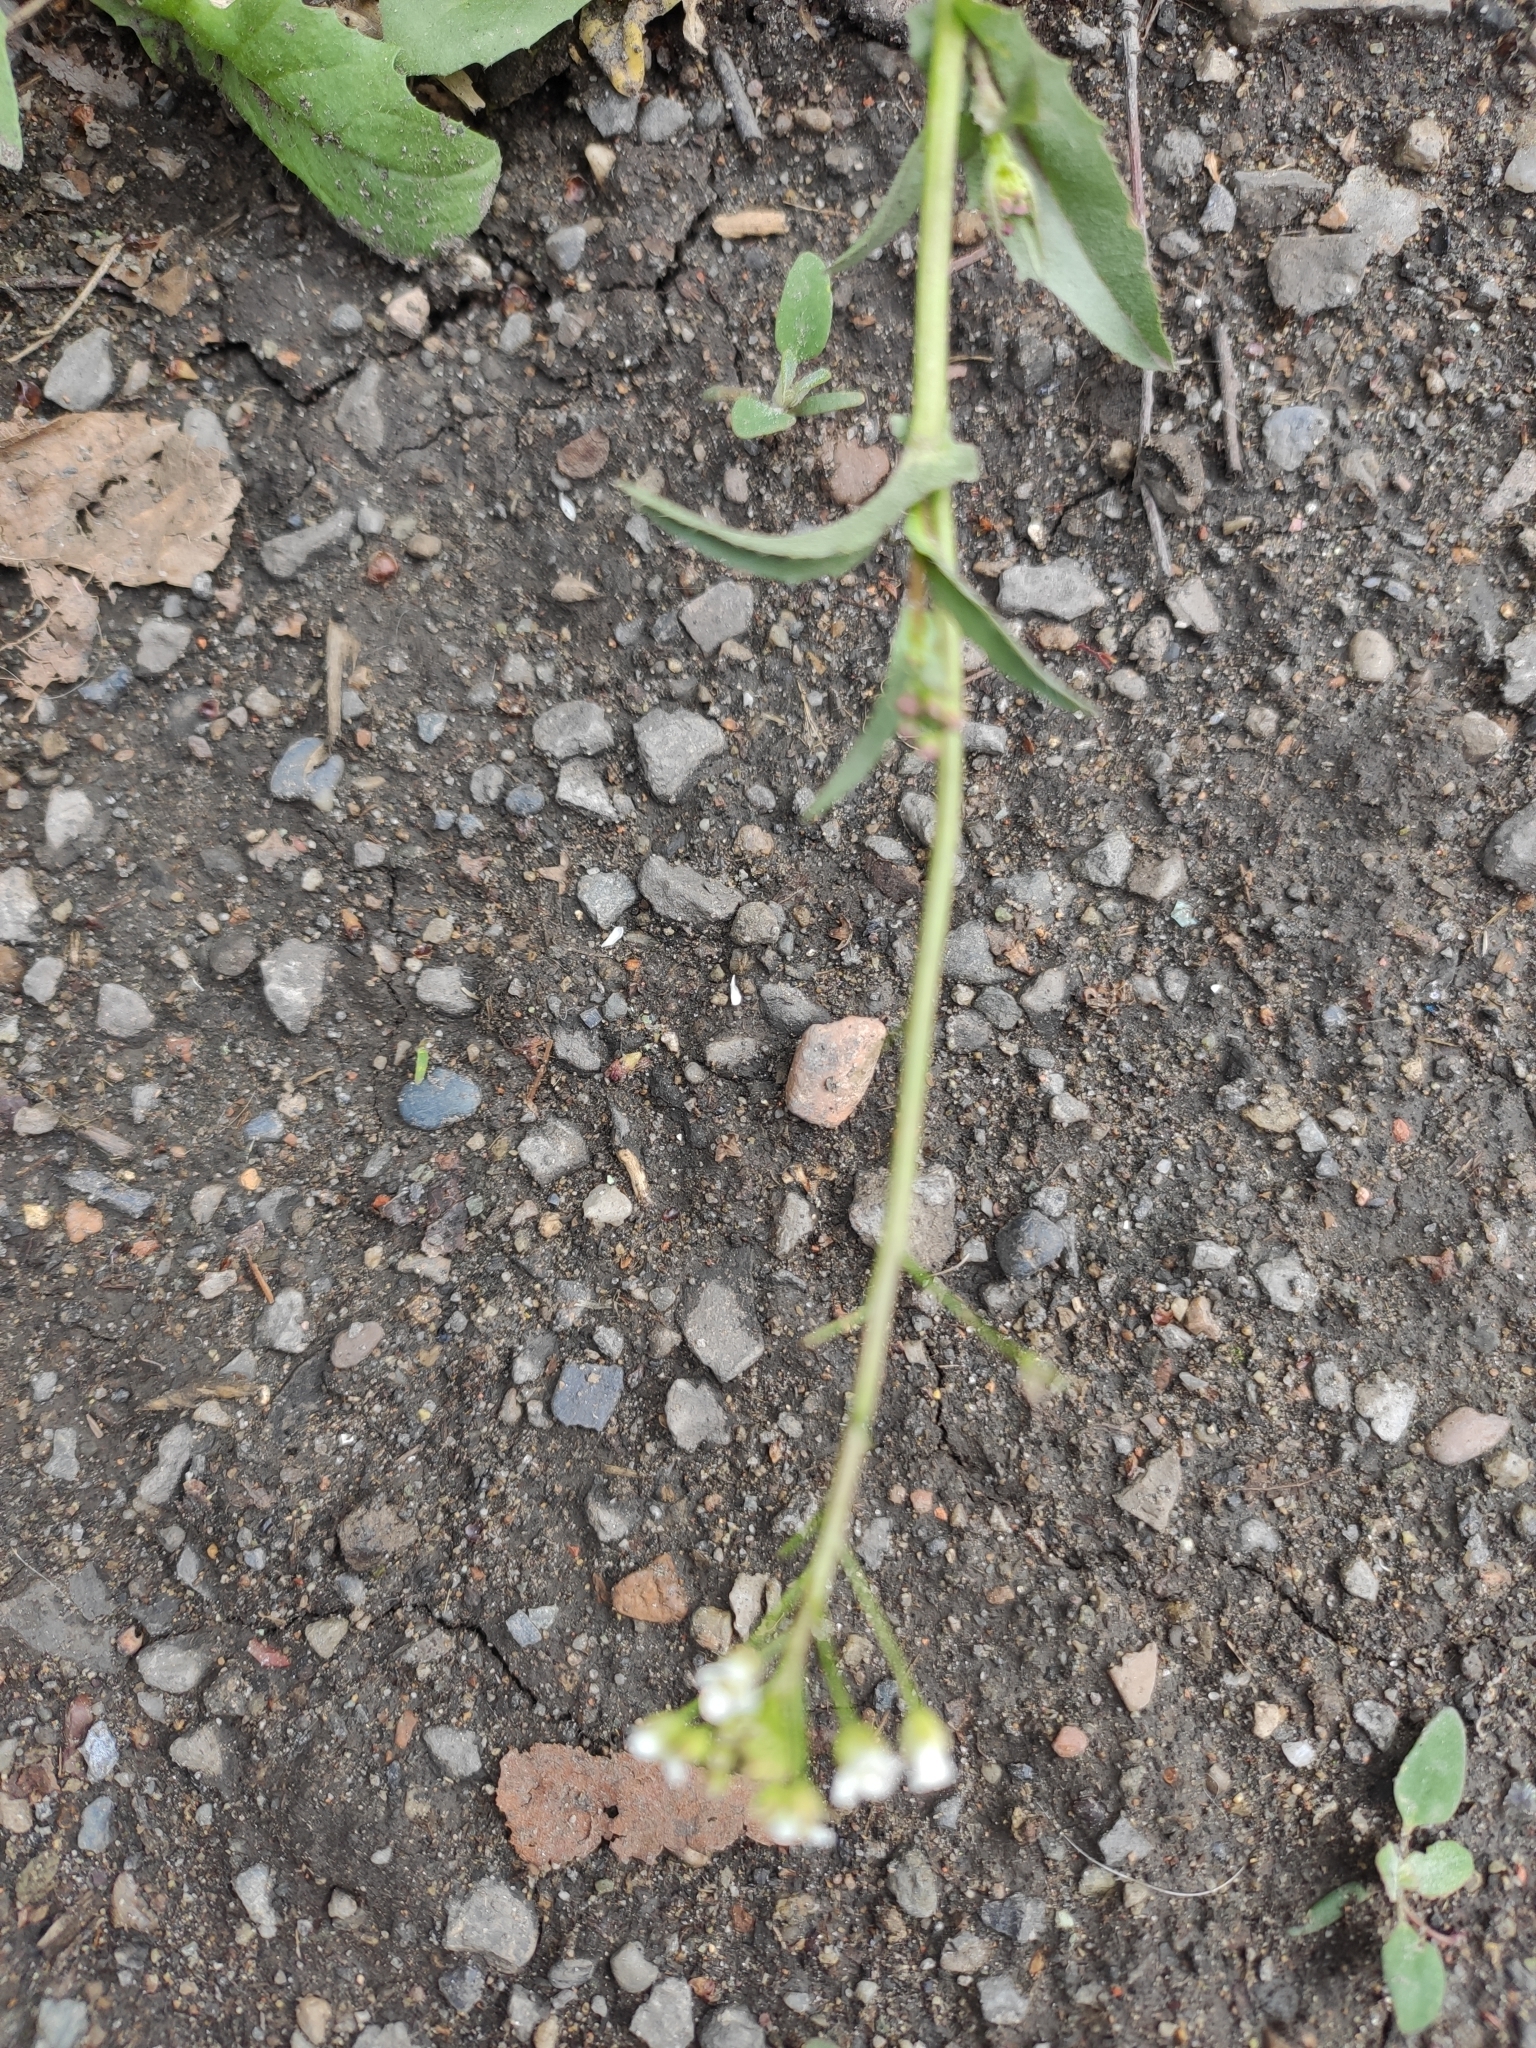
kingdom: Plantae
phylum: Tracheophyta
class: Magnoliopsida
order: Brassicales
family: Brassicaceae
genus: Capsella
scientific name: Capsella bursa-pastoris
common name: Shepherd's purse
